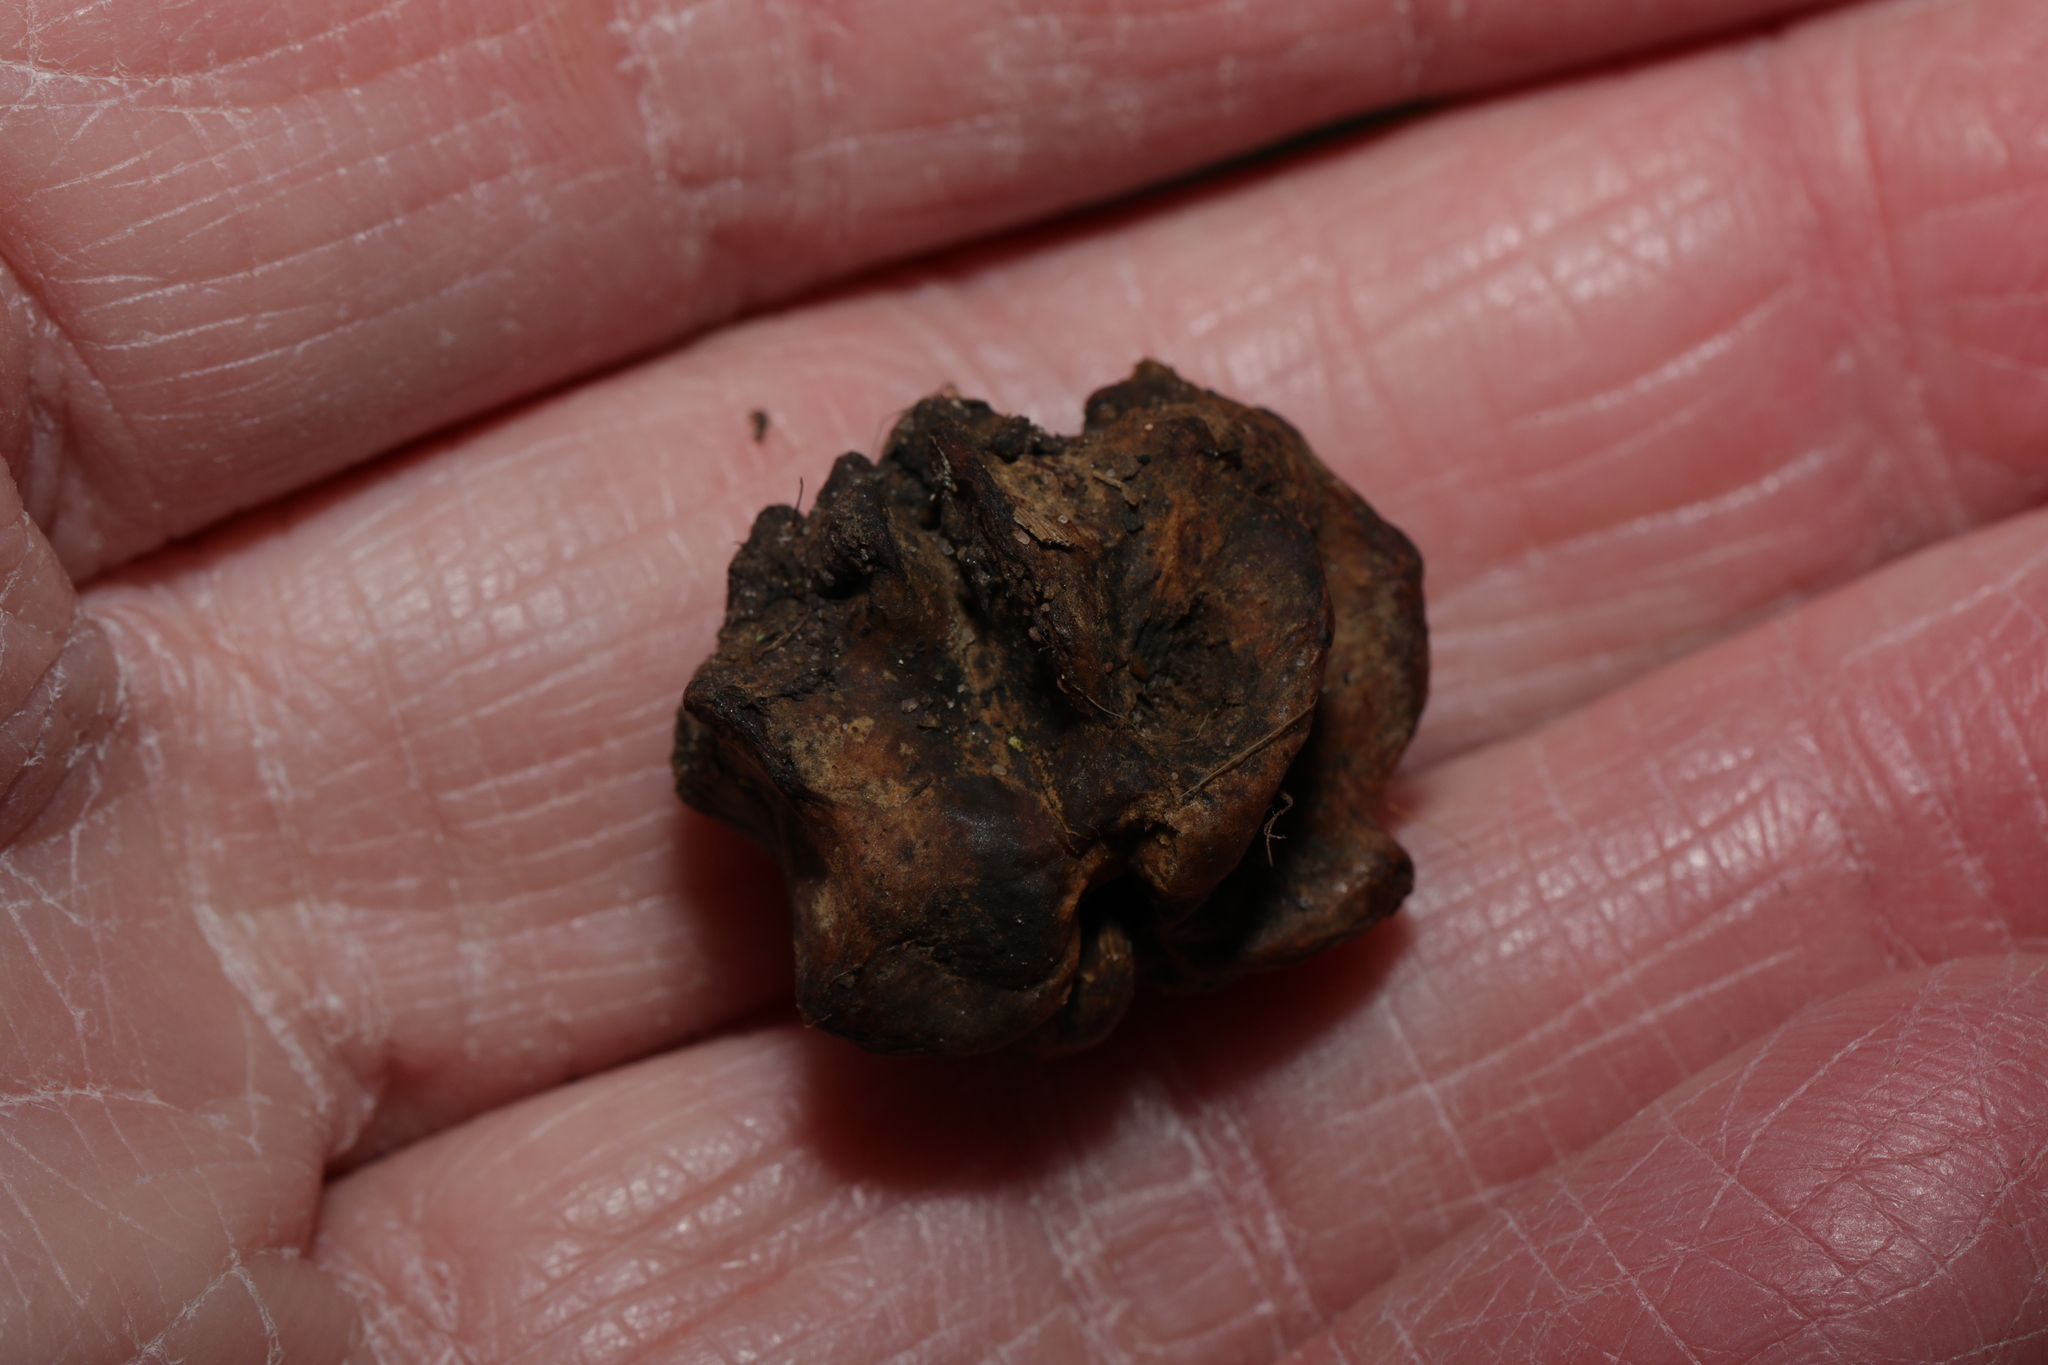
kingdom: Animalia
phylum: Arthropoda
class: Insecta
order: Hymenoptera
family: Cynipidae
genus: Andricus
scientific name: Andricus quercuscalicis
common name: Knopper gall
